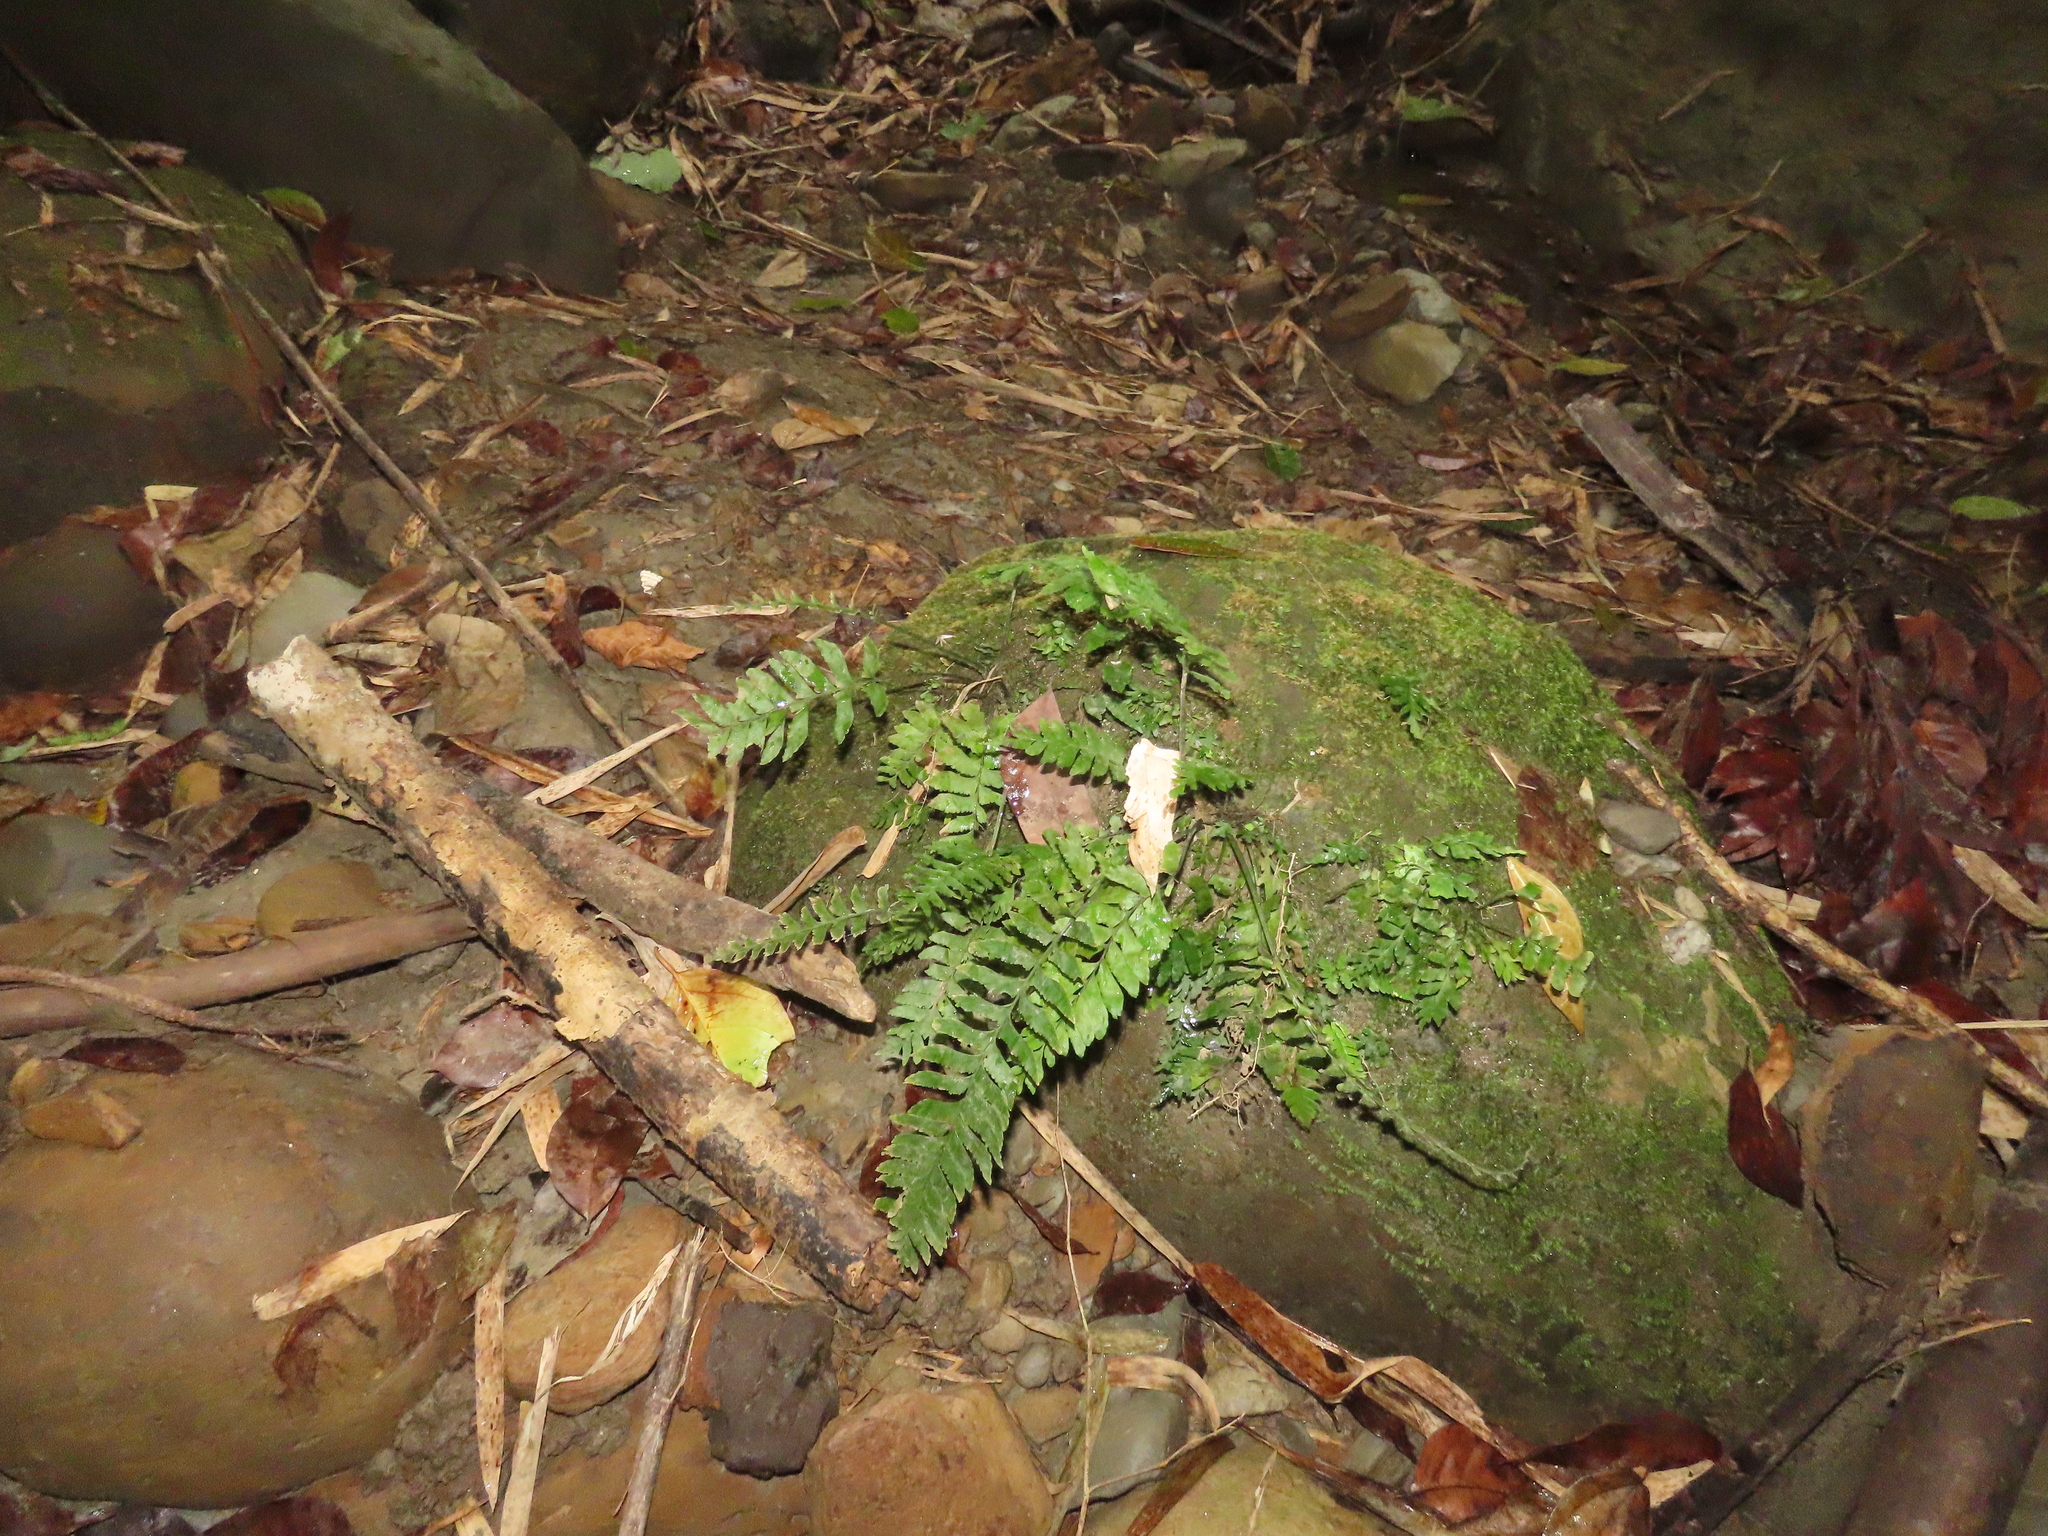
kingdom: Plantae
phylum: Tracheophyta
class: Polypodiopsida
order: Polypodiales
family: Aspleniaceae
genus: Hymenasplenium
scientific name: Hymenasplenium pseudobscurum
